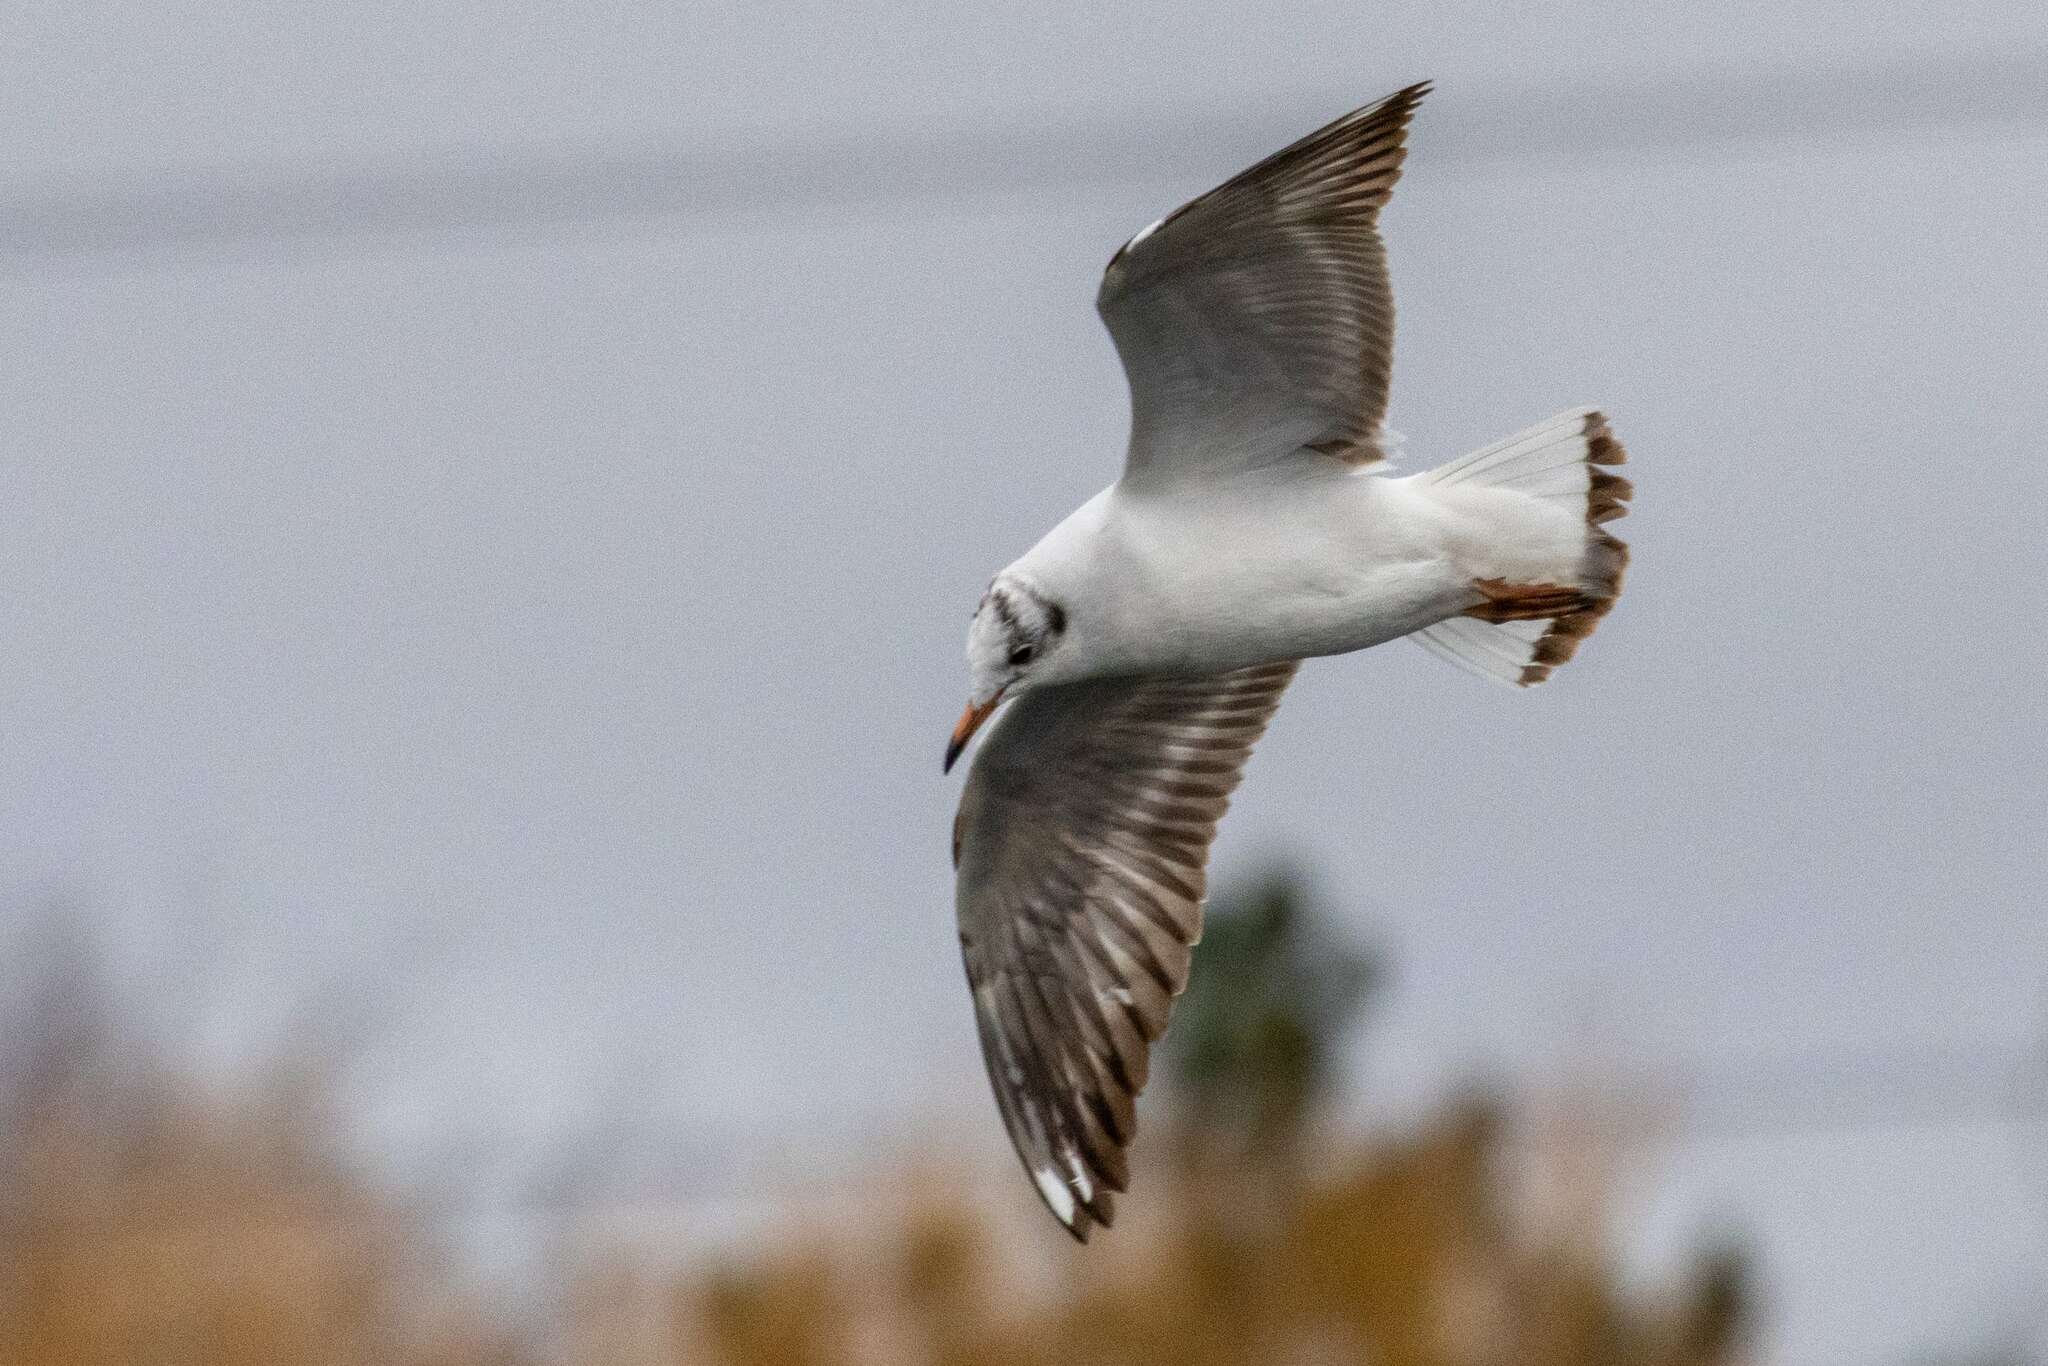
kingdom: Animalia
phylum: Chordata
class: Aves
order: Charadriiformes
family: Laridae
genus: Chroicocephalus
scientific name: Chroicocephalus ridibundus
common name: Black-headed gull
